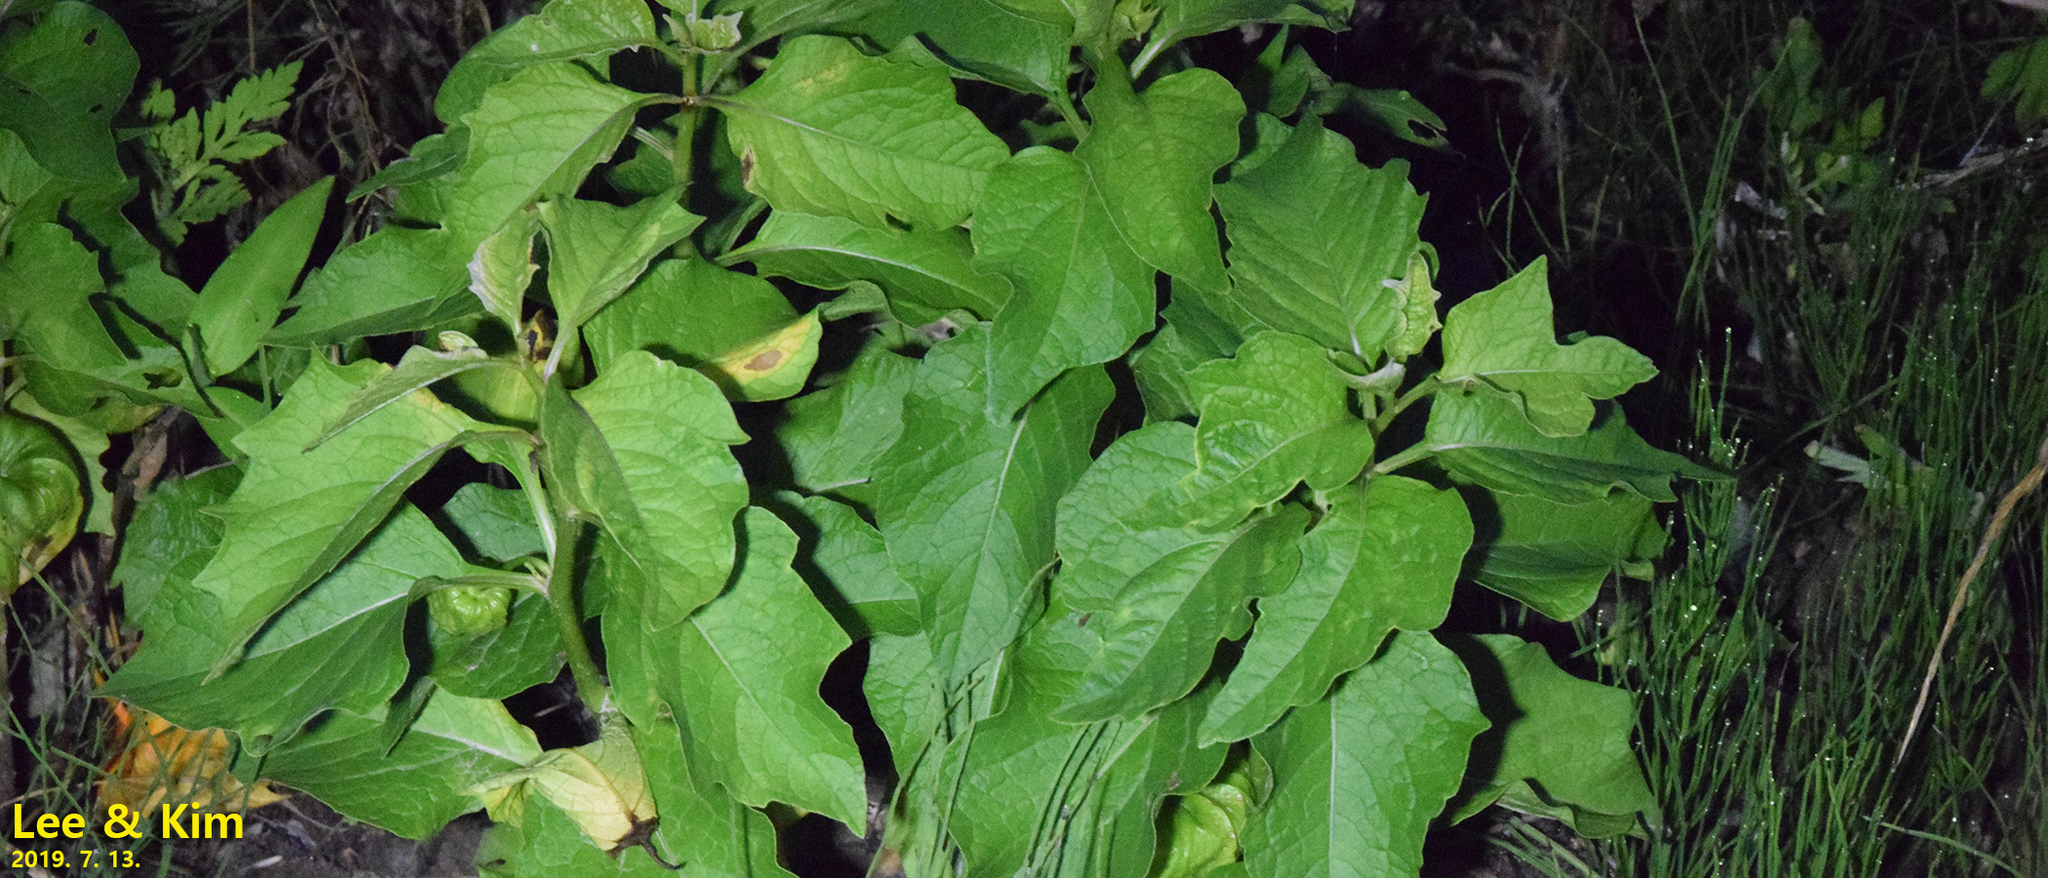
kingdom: Plantae
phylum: Tracheophyta
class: Magnoliopsida
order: Solanales
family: Solanaceae
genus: Alkekengi
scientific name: Alkekengi officinarum
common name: Japanese-lantern
